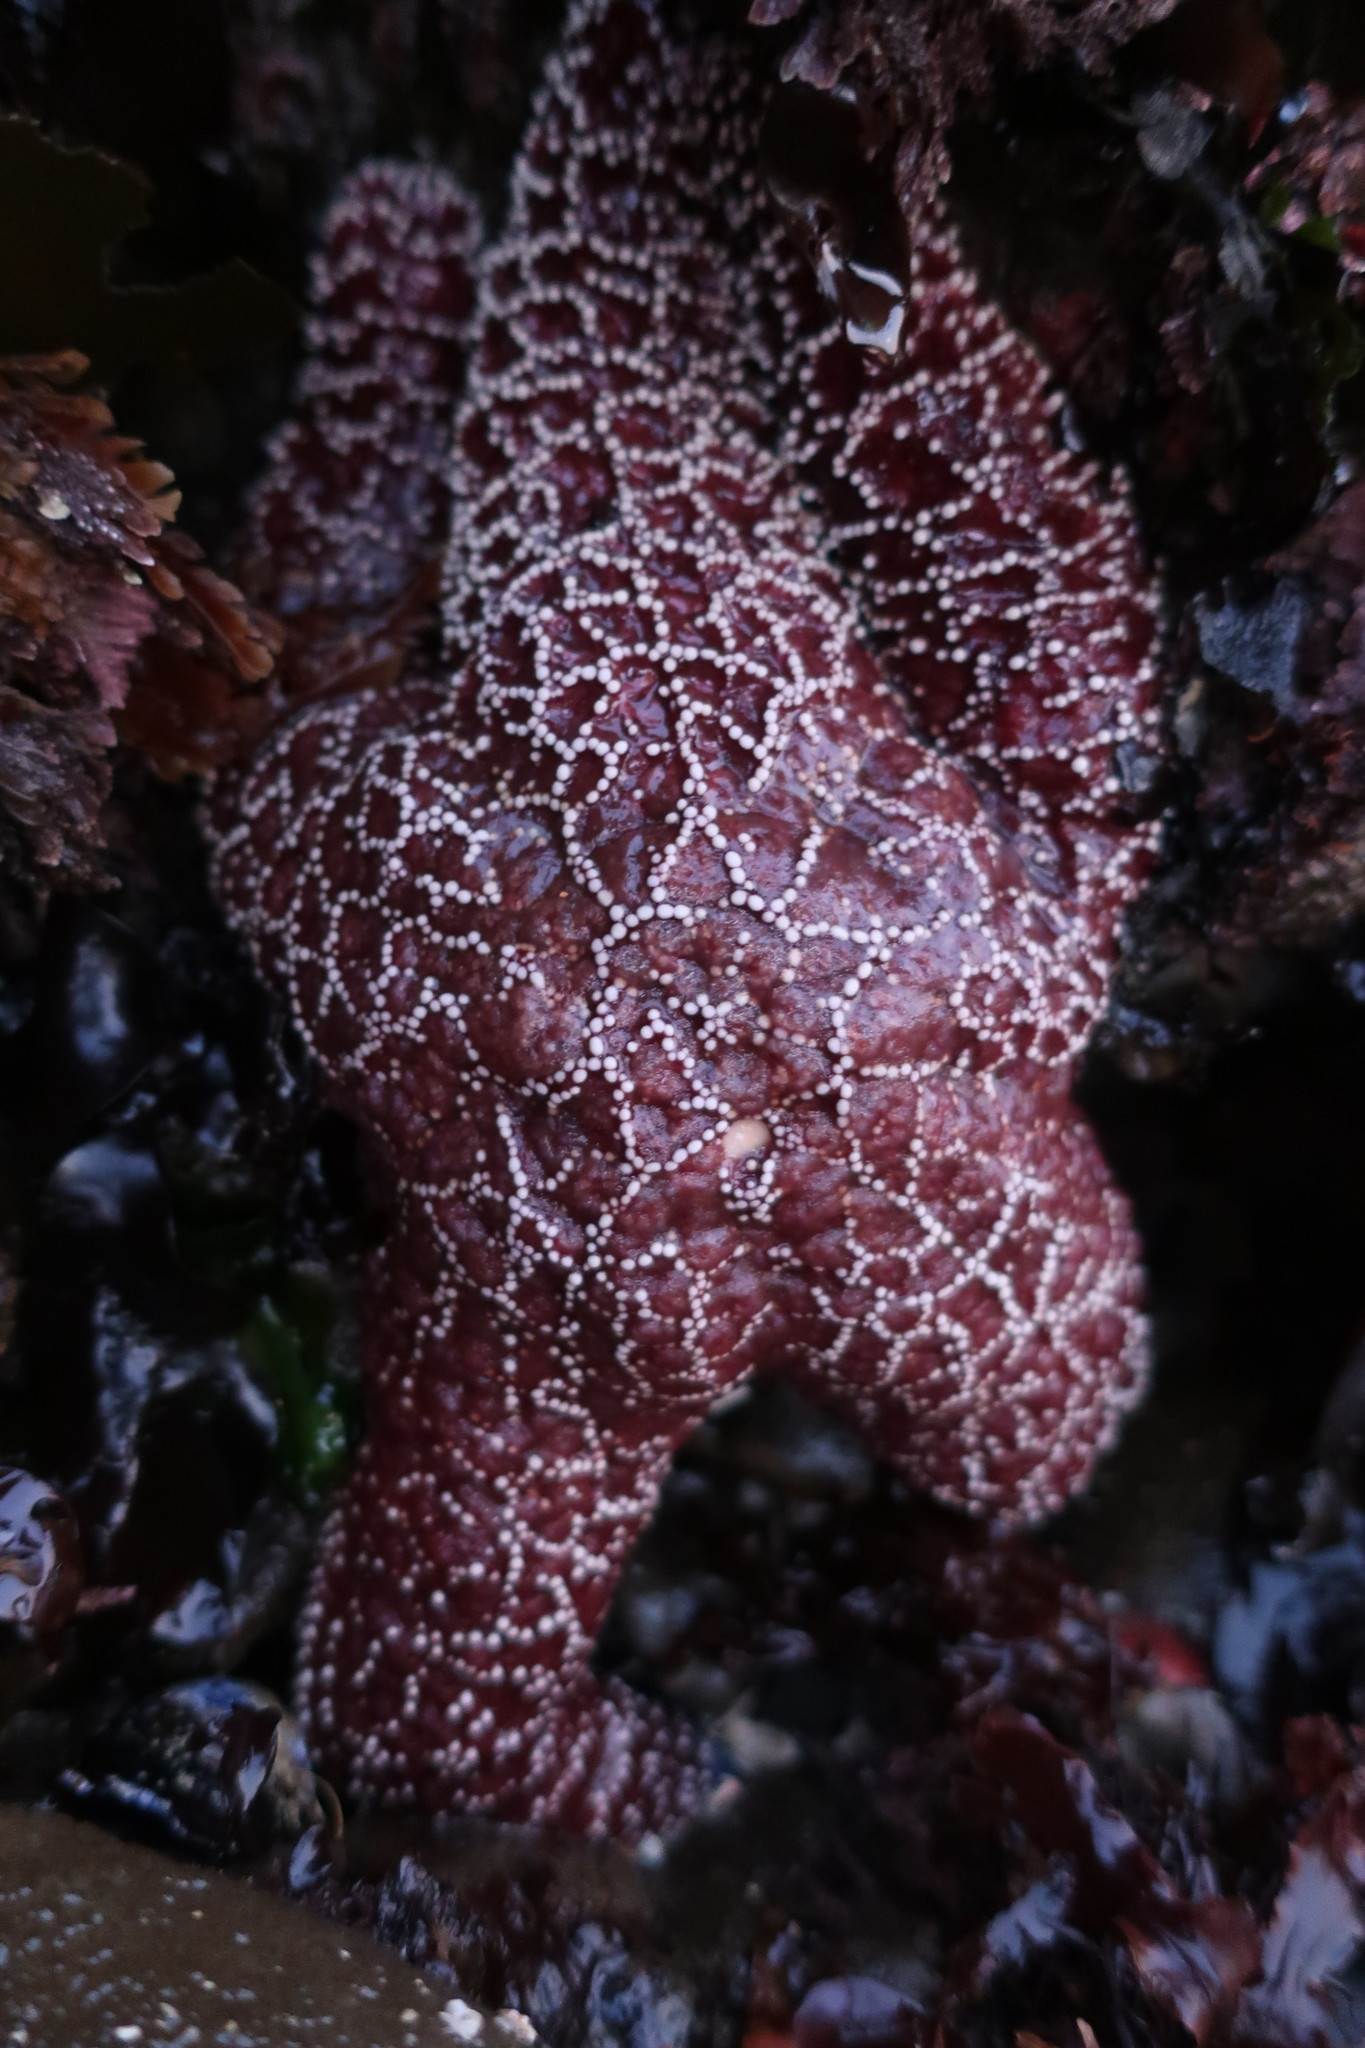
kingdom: Animalia
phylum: Echinodermata
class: Asteroidea
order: Forcipulatida
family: Asteriidae
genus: Pisaster
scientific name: Pisaster ochraceus
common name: Ochre stars
